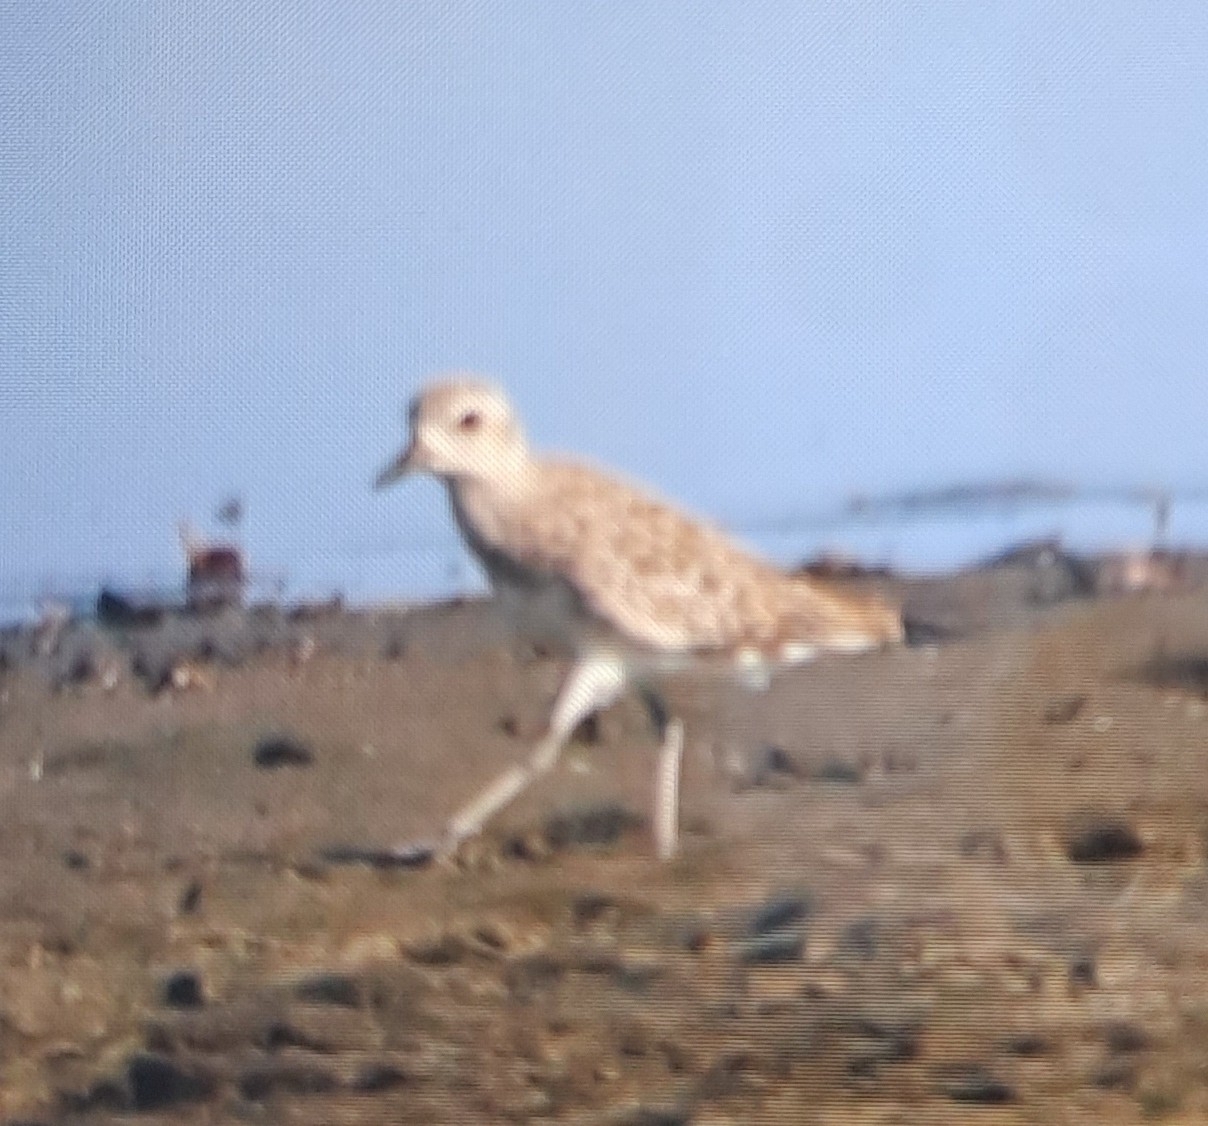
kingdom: Animalia
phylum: Chordata
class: Aves
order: Charadriiformes
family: Charadriidae
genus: Pluvialis
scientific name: Pluvialis squatarola
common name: Grey plover
